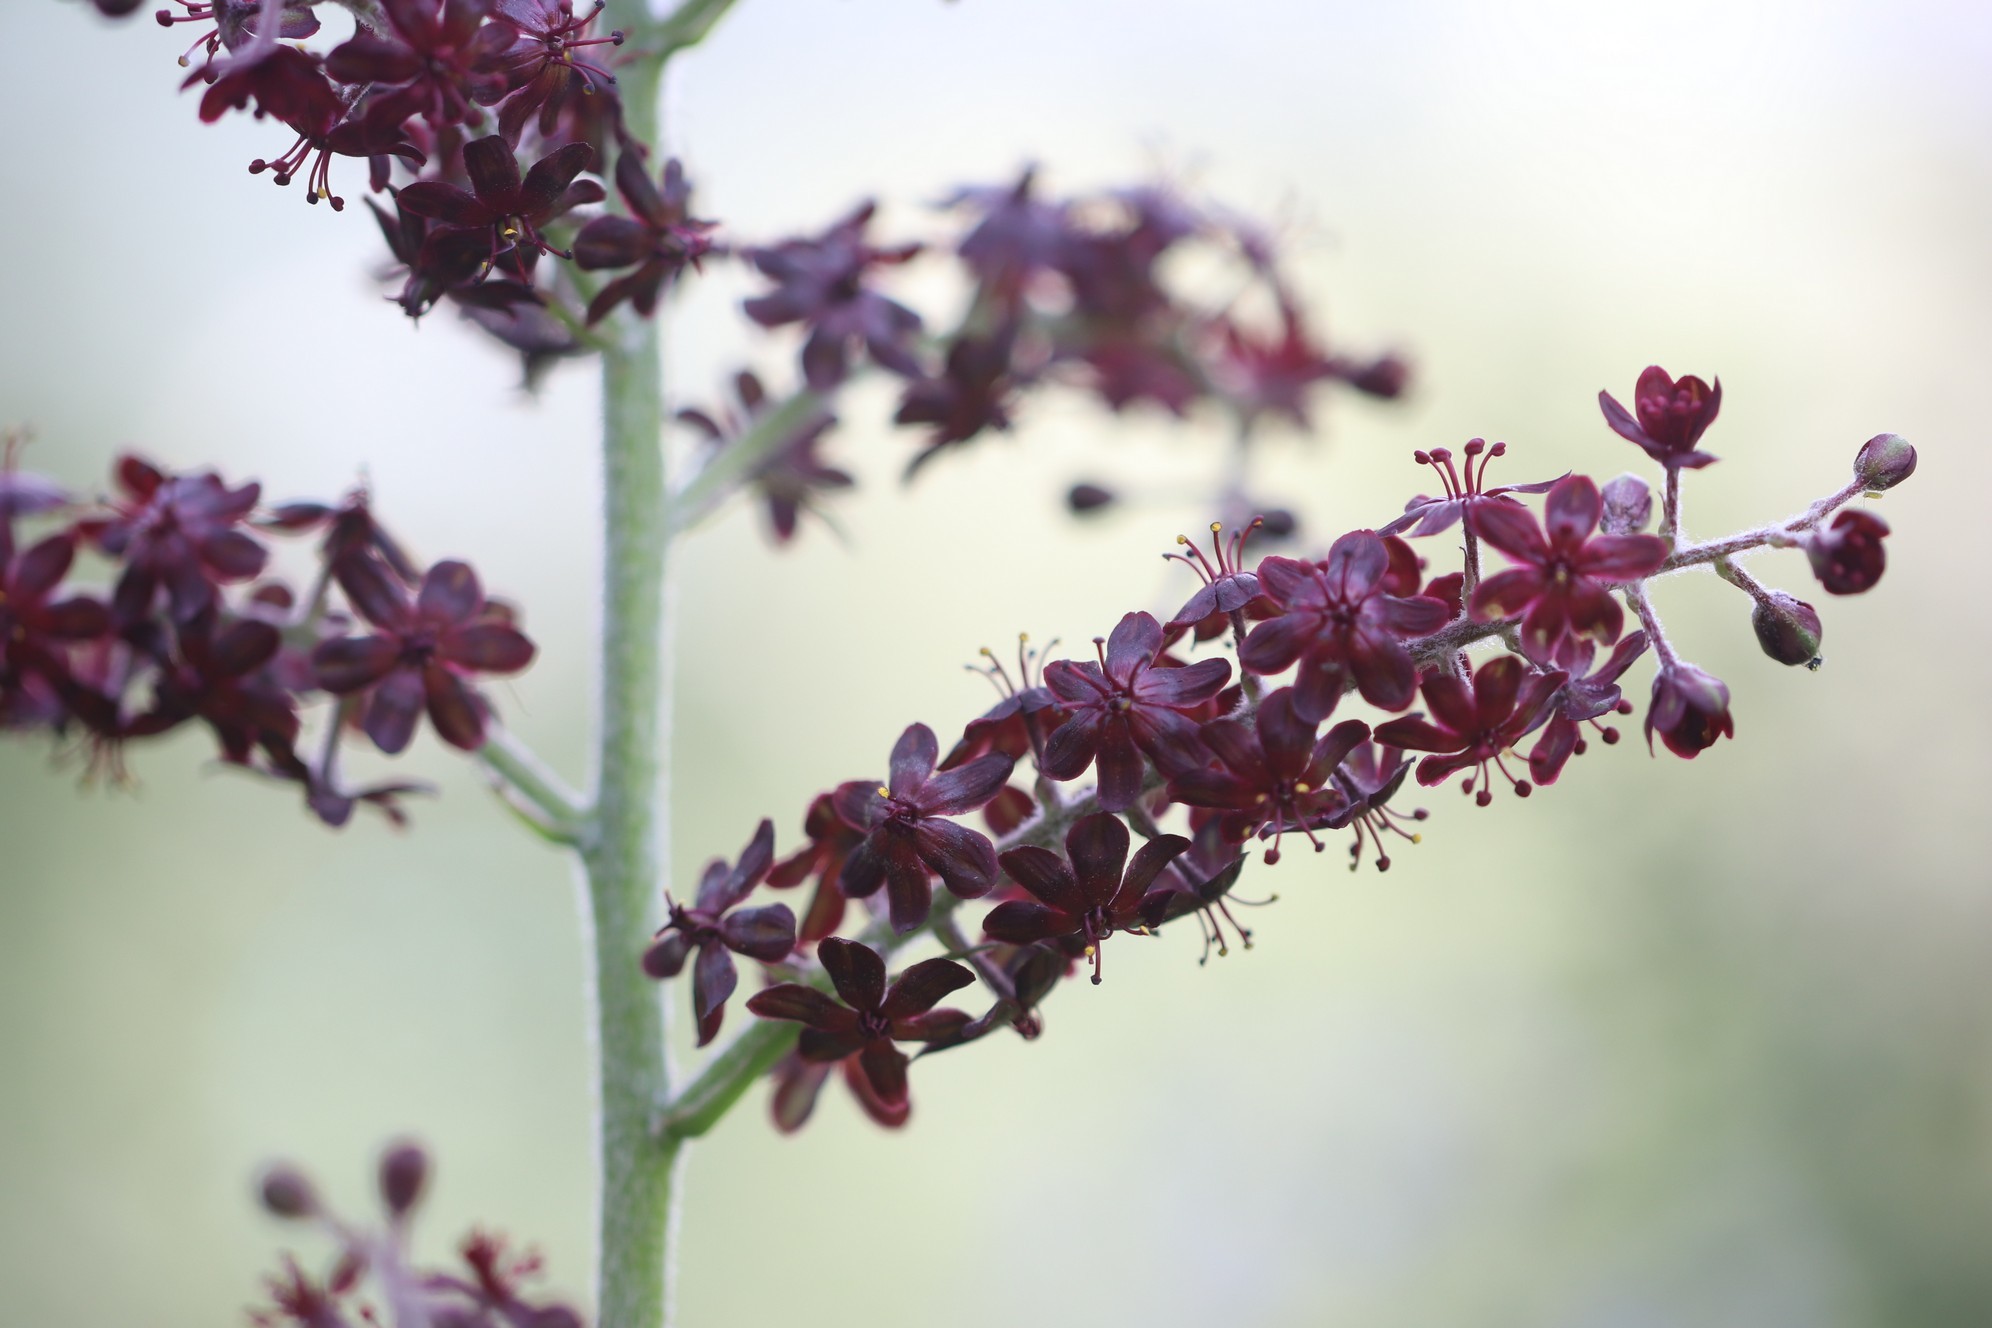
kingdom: Plantae
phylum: Tracheophyta
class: Liliopsida
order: Liliales
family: Melanthiaceae
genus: Veratrum
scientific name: Veratrum nigrum
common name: Black veratrum
